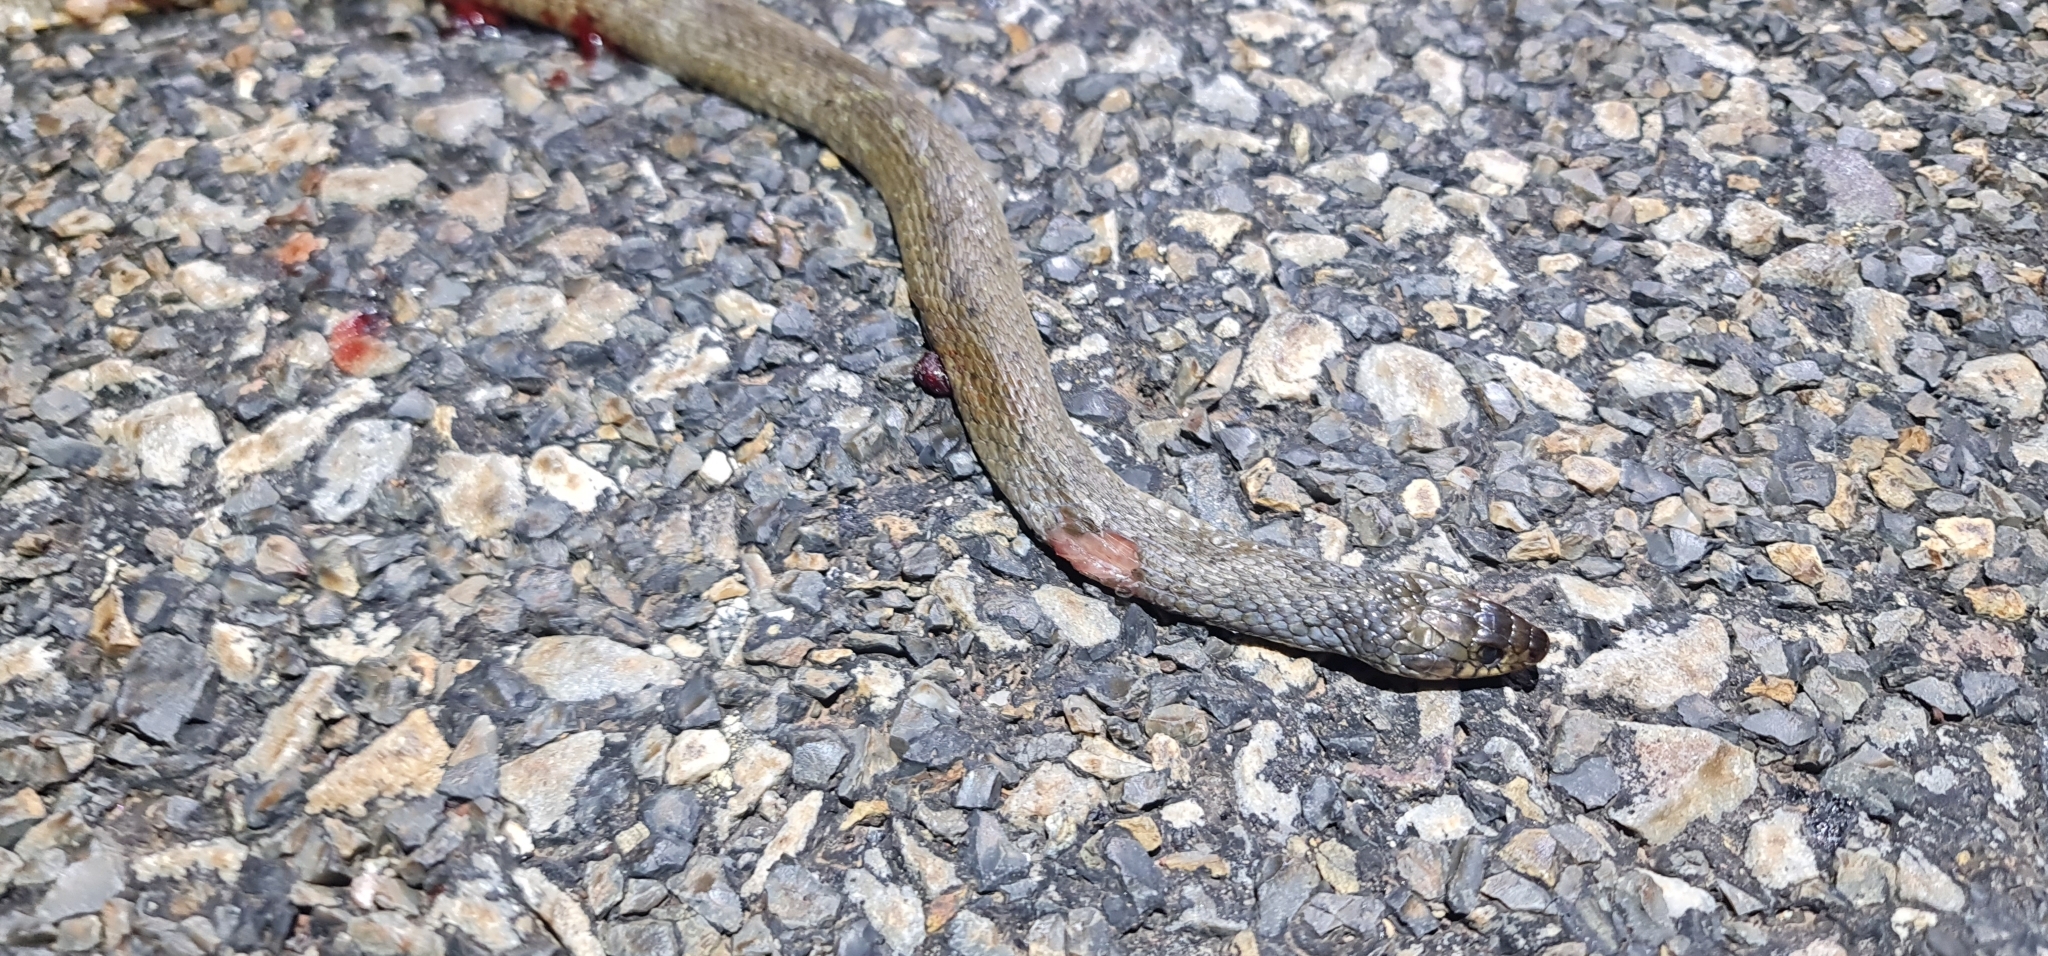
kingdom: Animalia
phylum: Chordata
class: Squamata
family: Colubridae
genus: Tropidonophis
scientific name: Tropidonophis mairii
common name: Common keelback
